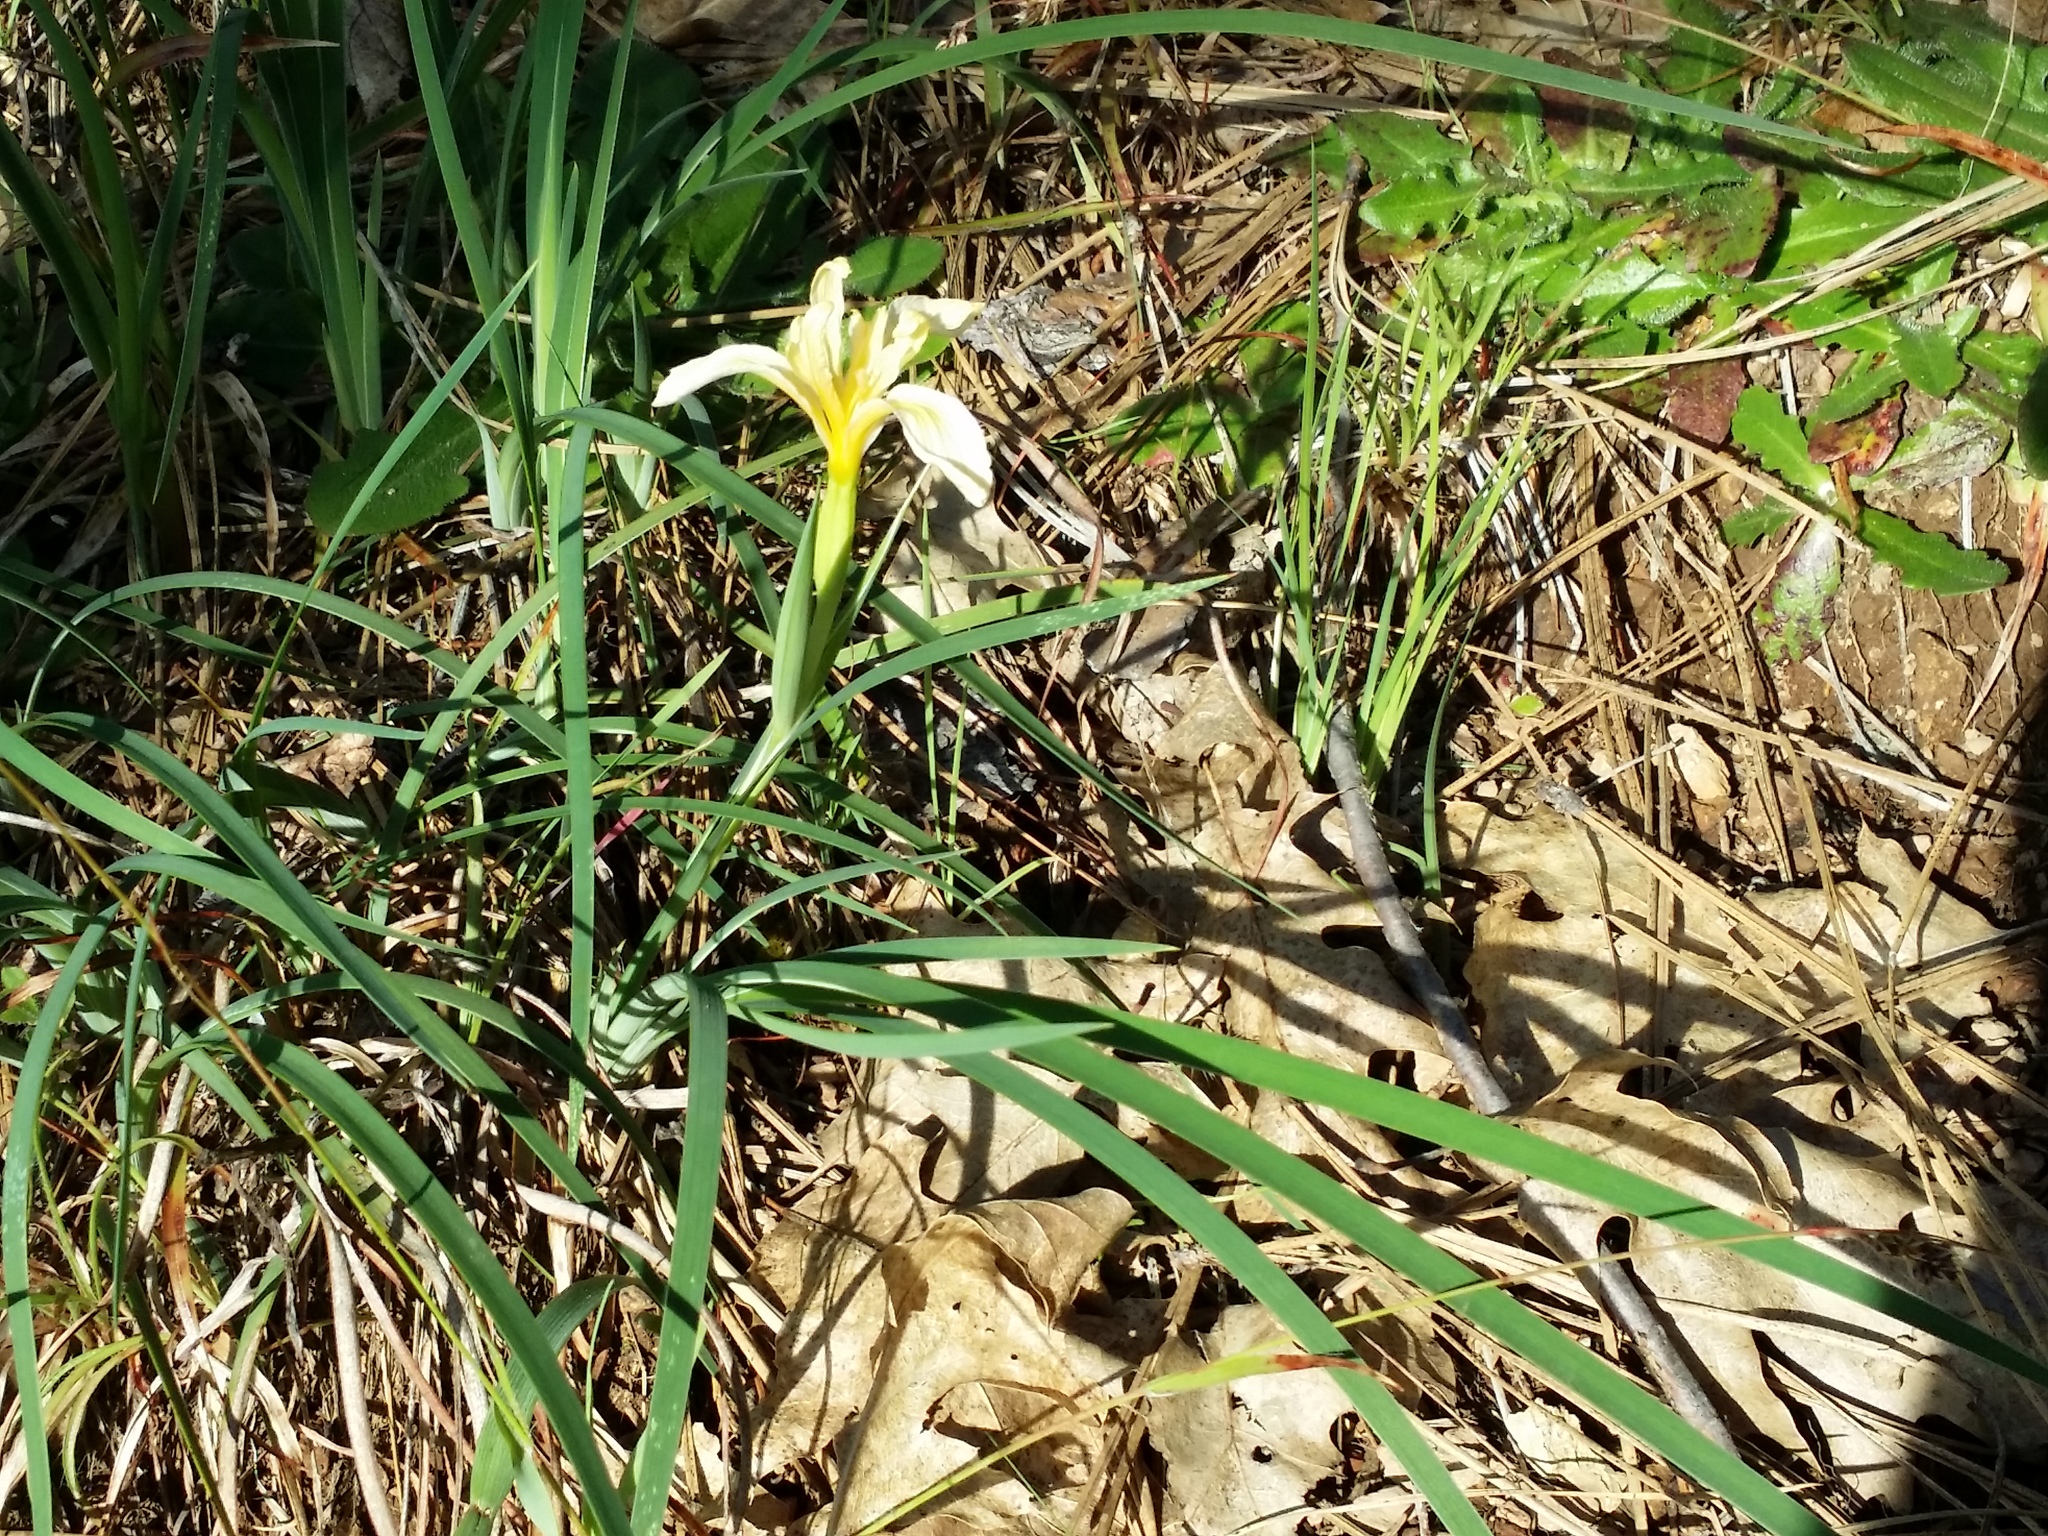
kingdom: Plantae
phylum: Tracheophyta
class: Liliopsida
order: Asparagales
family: Iridaceae
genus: Iris
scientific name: Iris hartwegii
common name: Sierra iris
